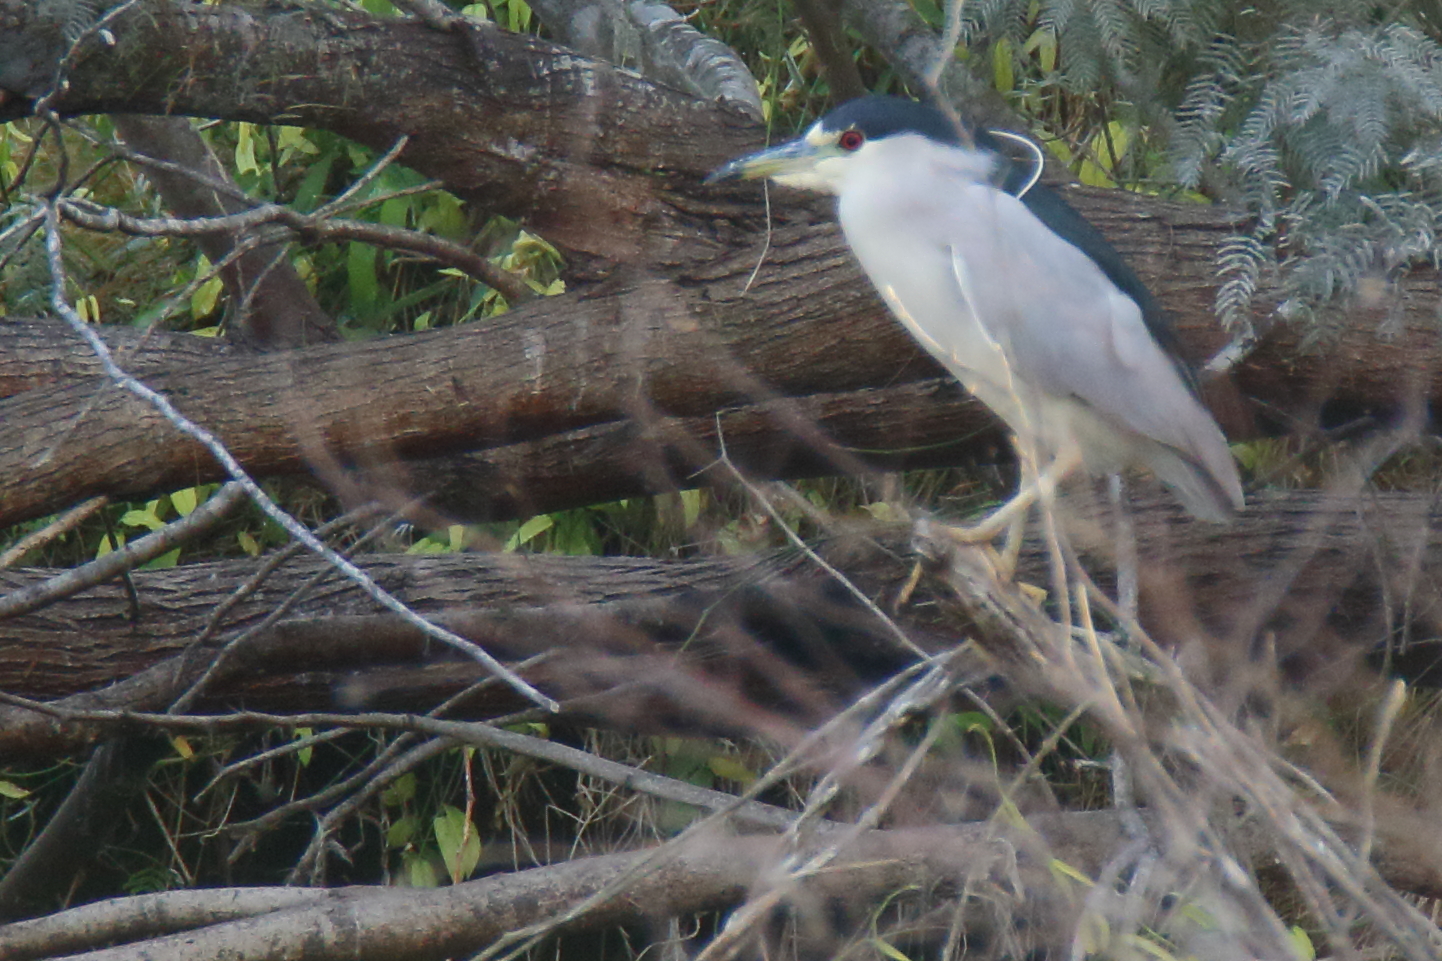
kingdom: Animalia
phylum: Chordata
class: Aves
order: Pelecaniformes
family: Ardeidae
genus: Nycticorax
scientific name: Nycticorax nycticorax
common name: Black-crowned night heron
